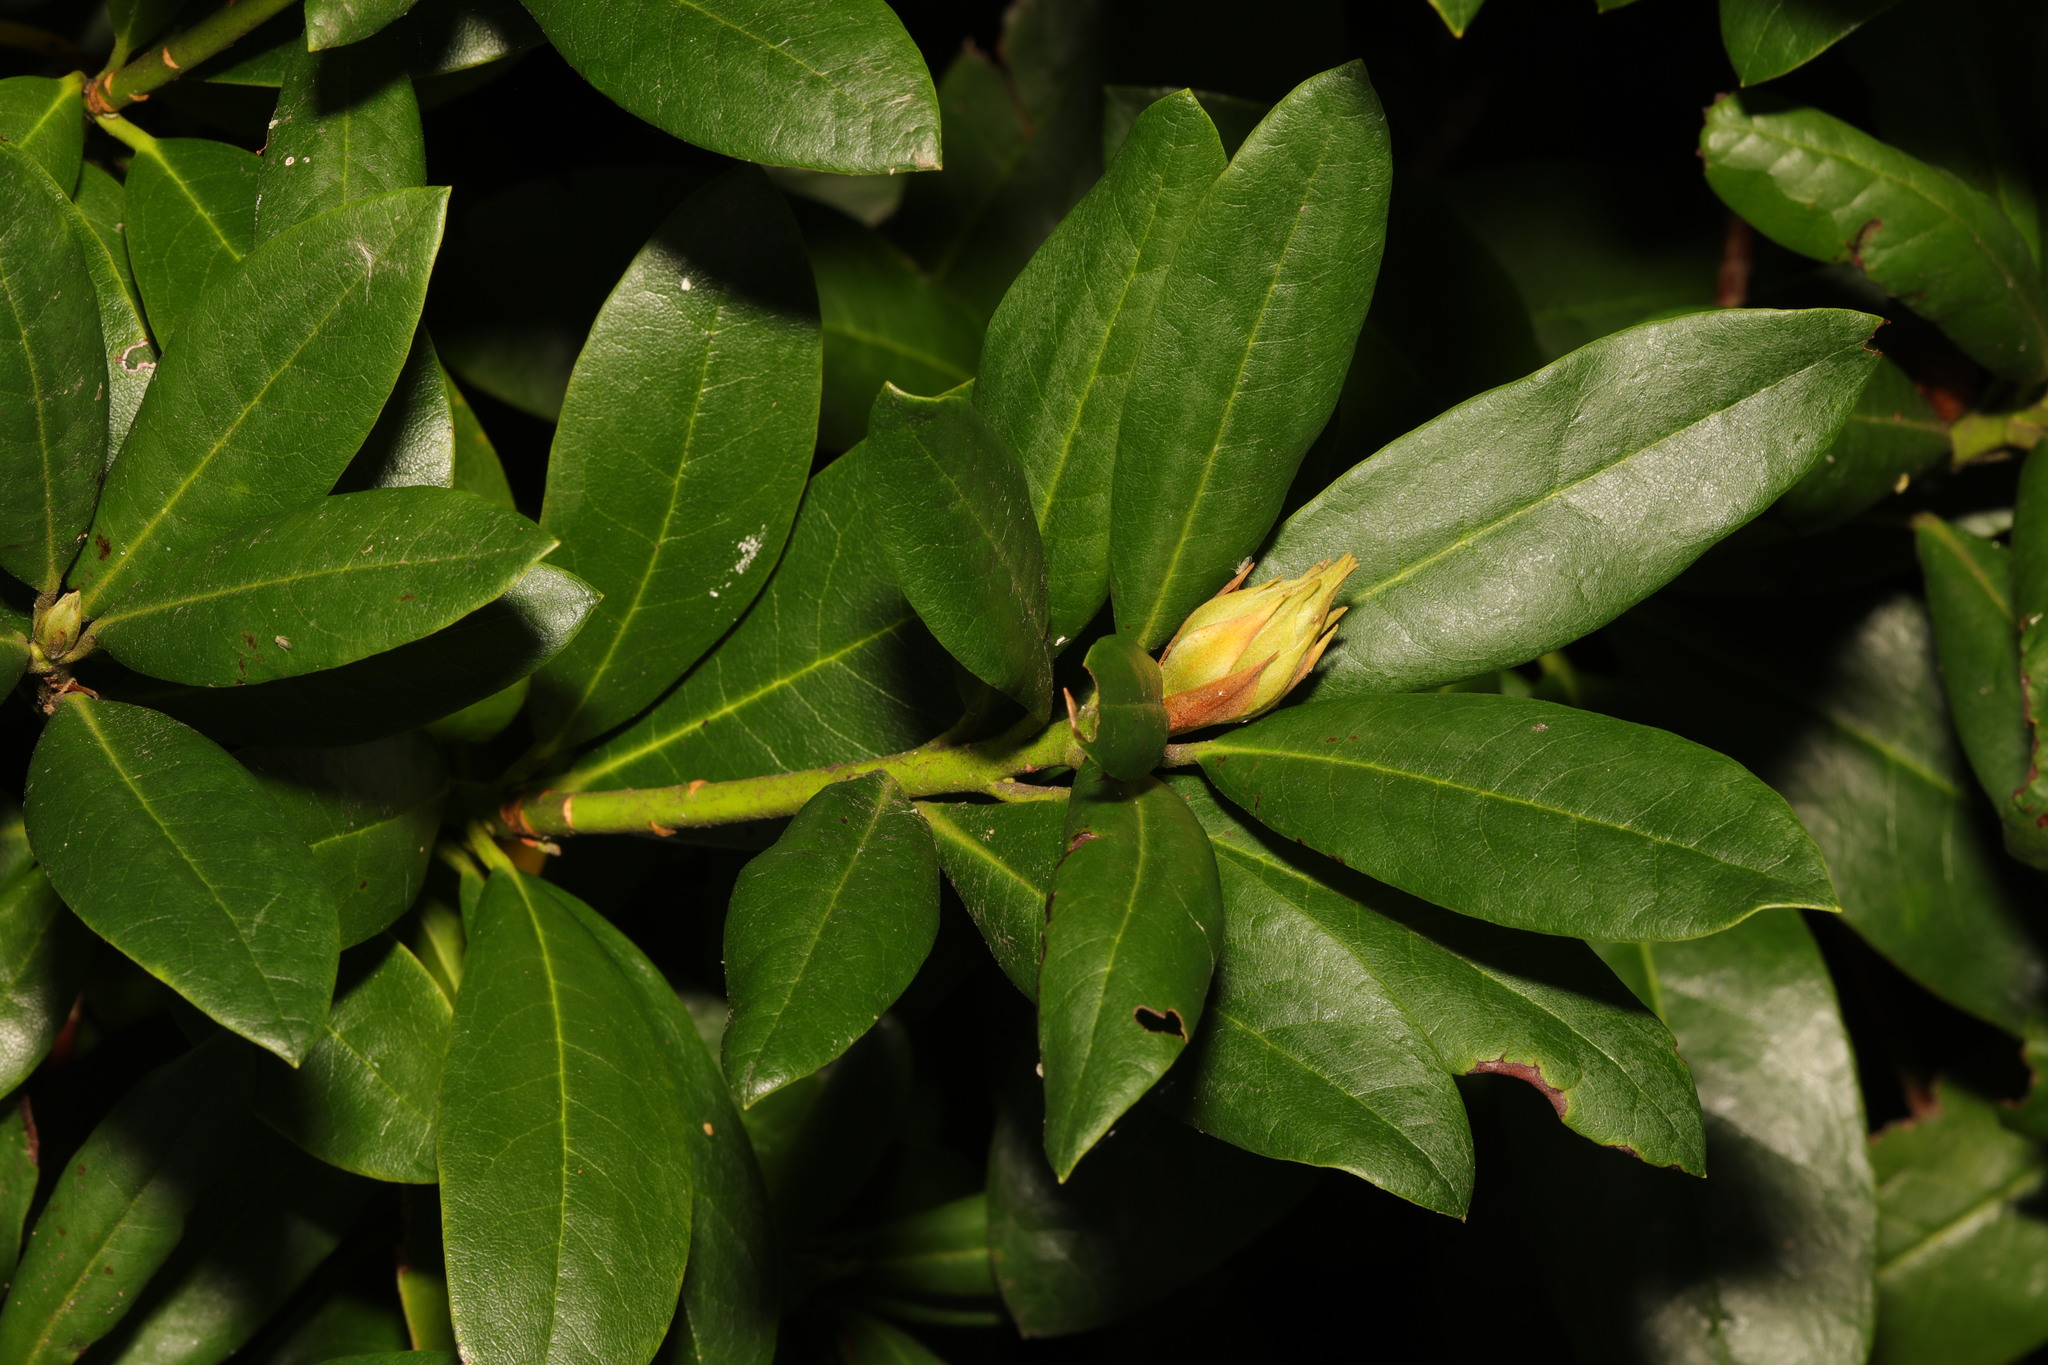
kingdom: Plantae
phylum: Tracheophyta
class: Magnoliopsida
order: Ericales
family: Ericaceae
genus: Rhododendron
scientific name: Rhododendron ponticum
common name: Rhododendron
